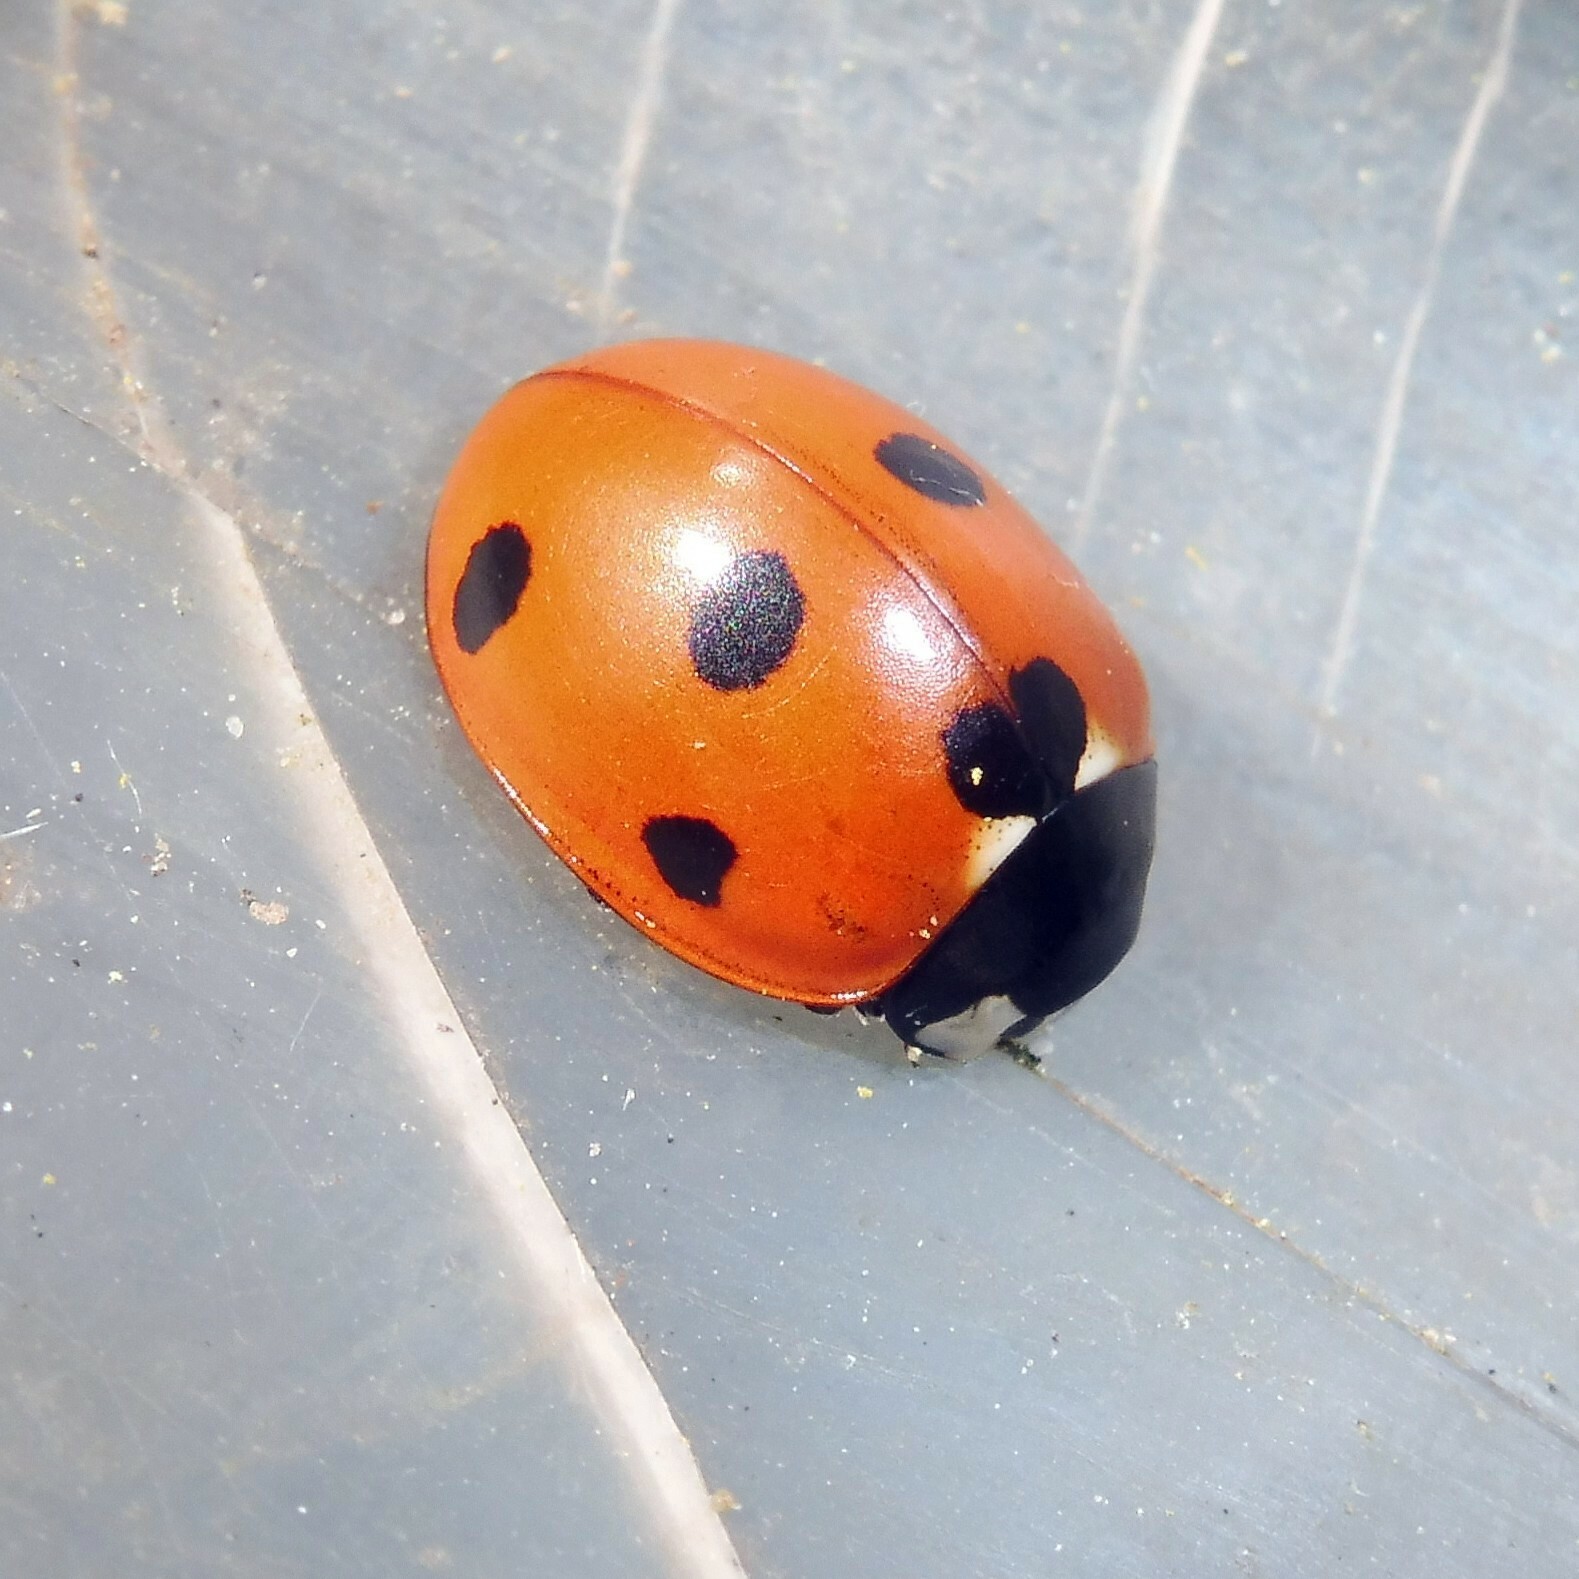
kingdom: Animalia
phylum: Arthropoda
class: Insecta
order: Coleoptera
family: Coccinellidae
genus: Coccinella
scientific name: Coccinella septempunctata
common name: Sevenspotted lady beetle
